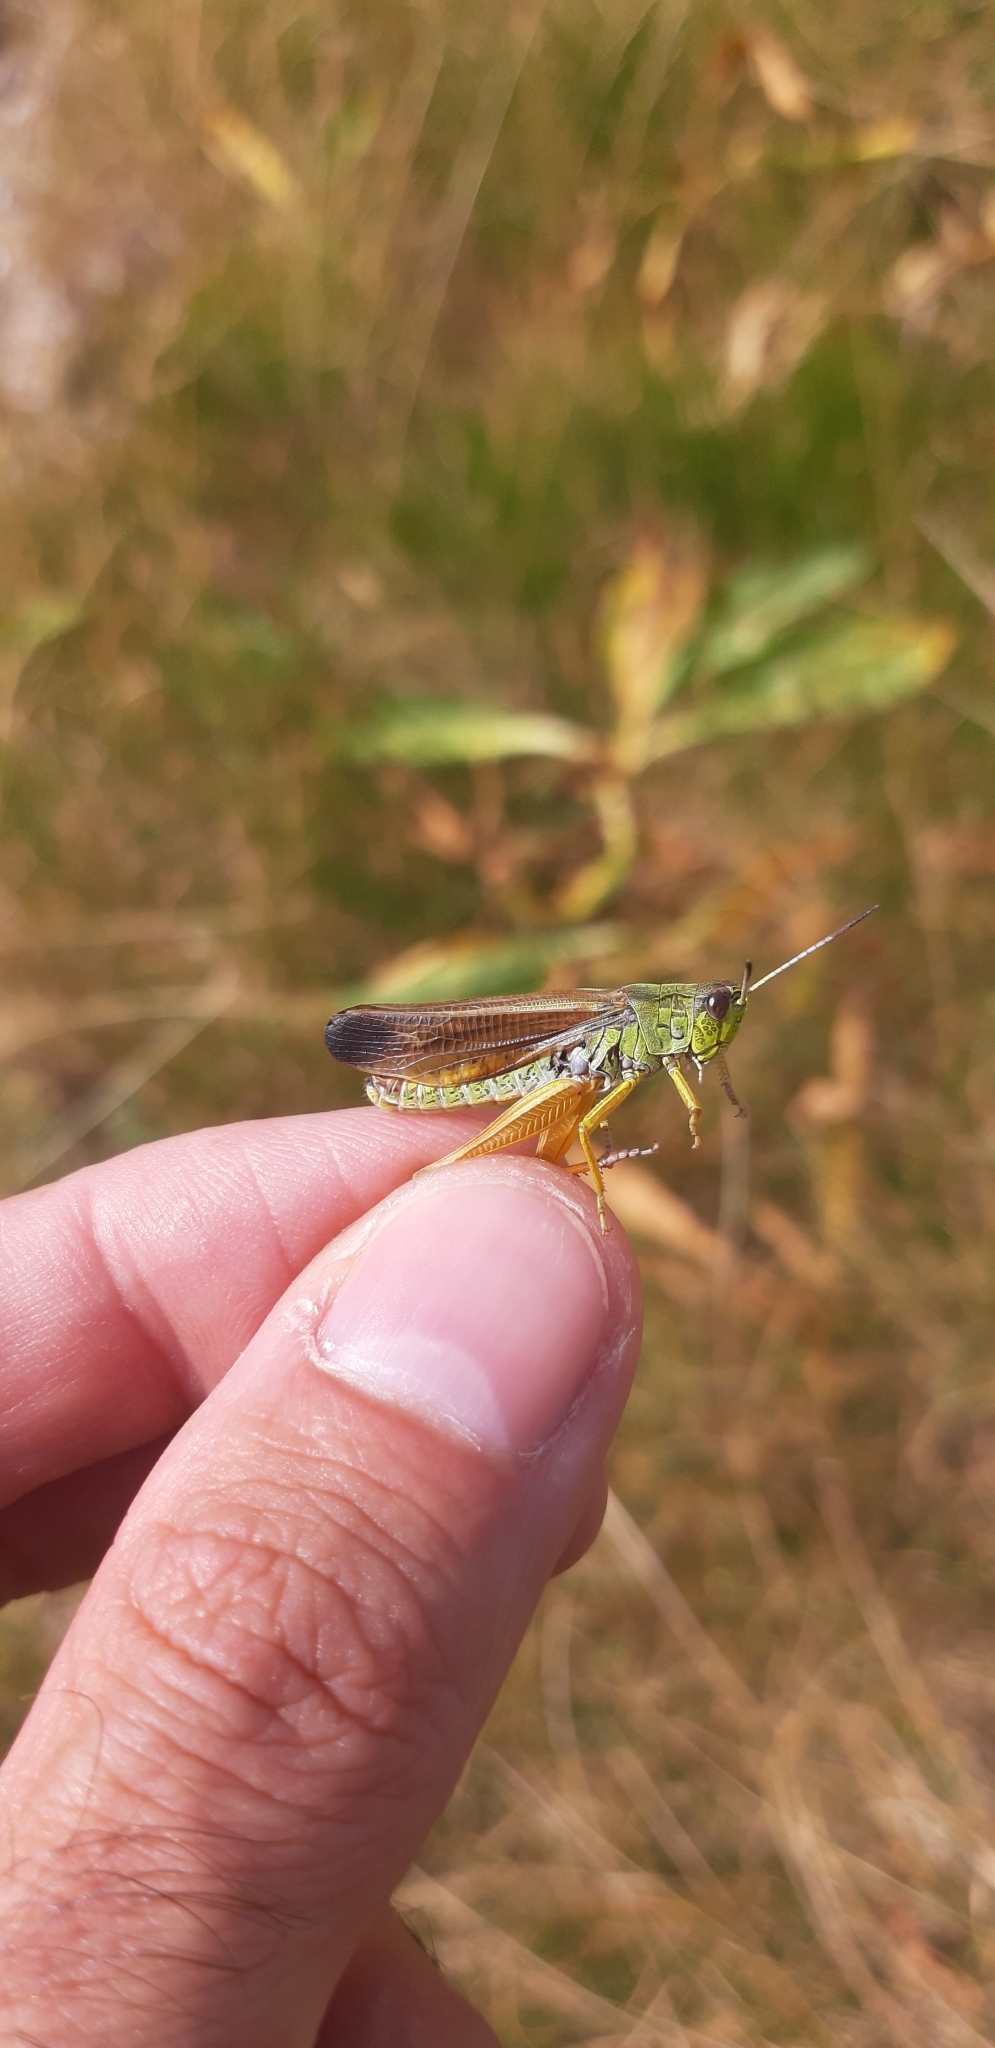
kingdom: Animalia
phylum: Arthropoda
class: Insecta
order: Orthoptera
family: Acrididae
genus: Stauroderus
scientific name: Stauroderus scalaris
